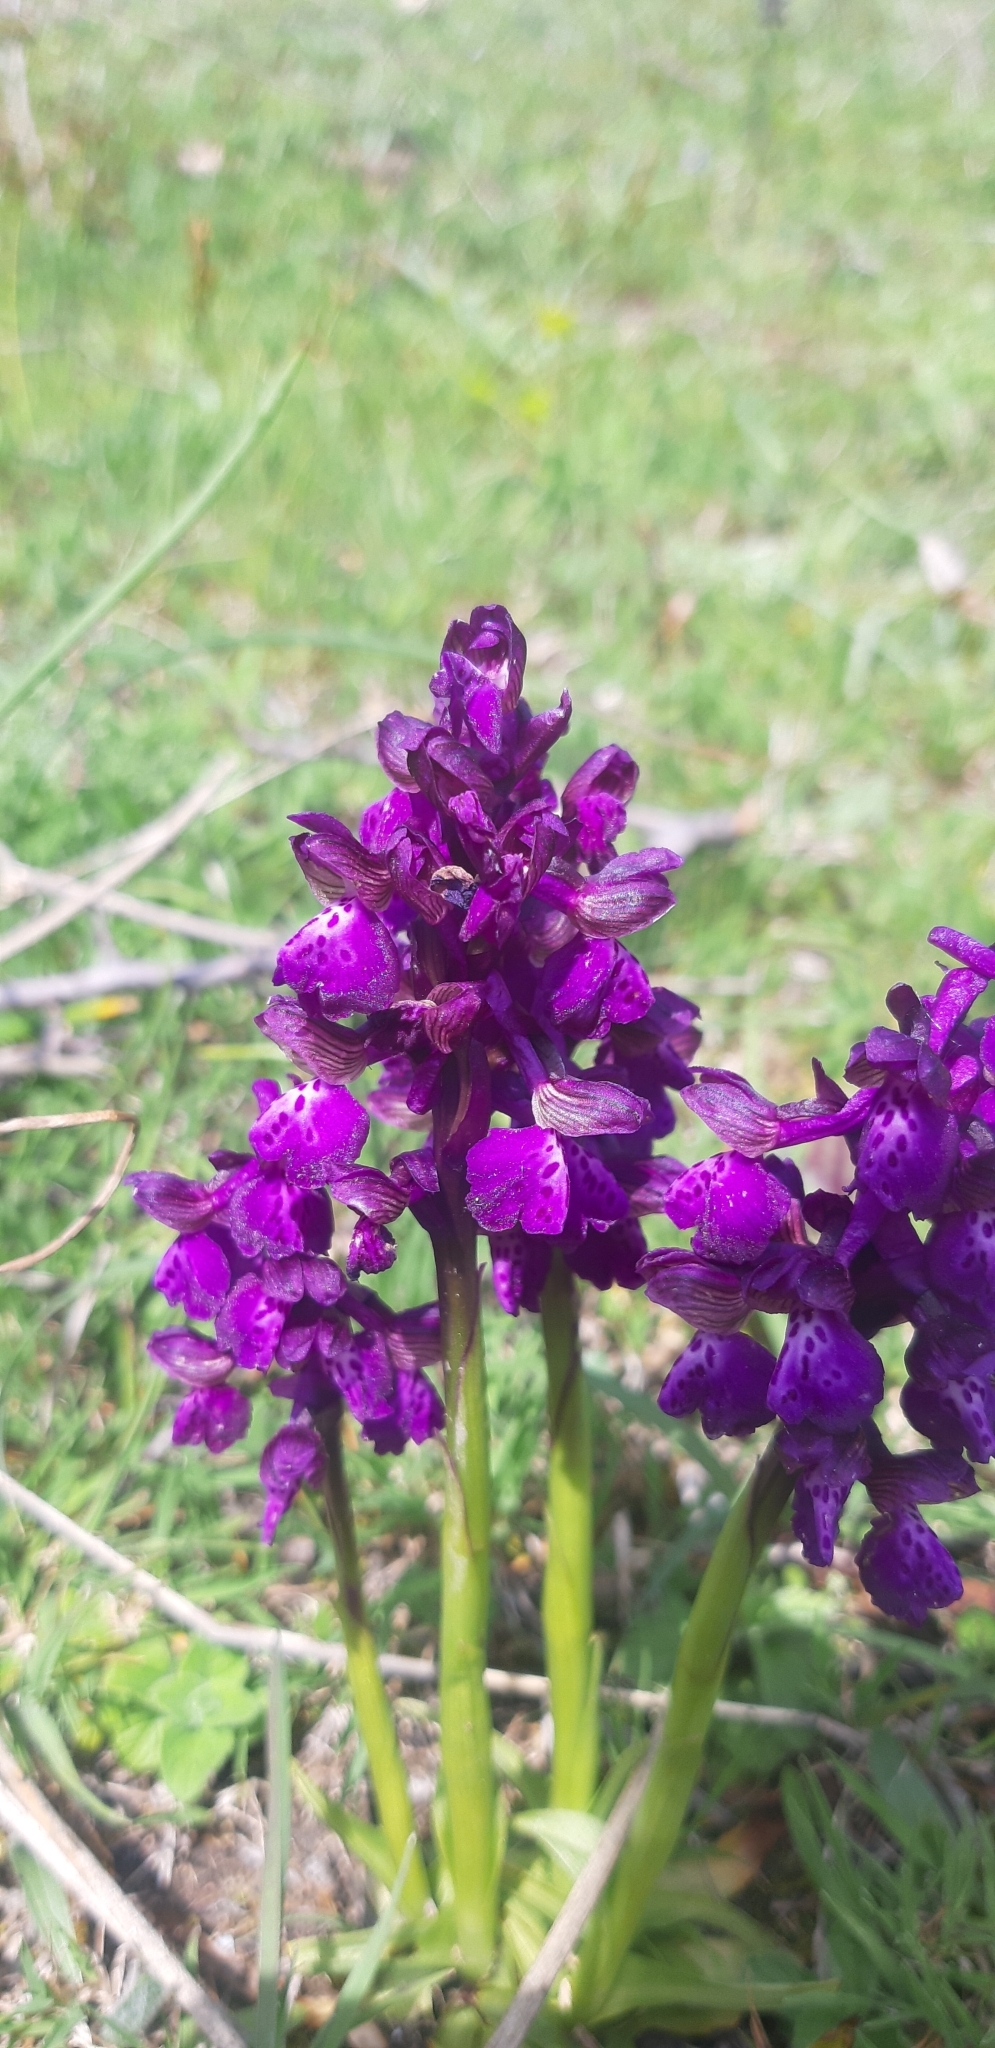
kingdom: Plantae
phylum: Tracheophyta
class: Liliopsida
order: Asparagales
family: Orchidaceae
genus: Anacamptis
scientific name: Anacamptis morio
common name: Green-winged orchid
